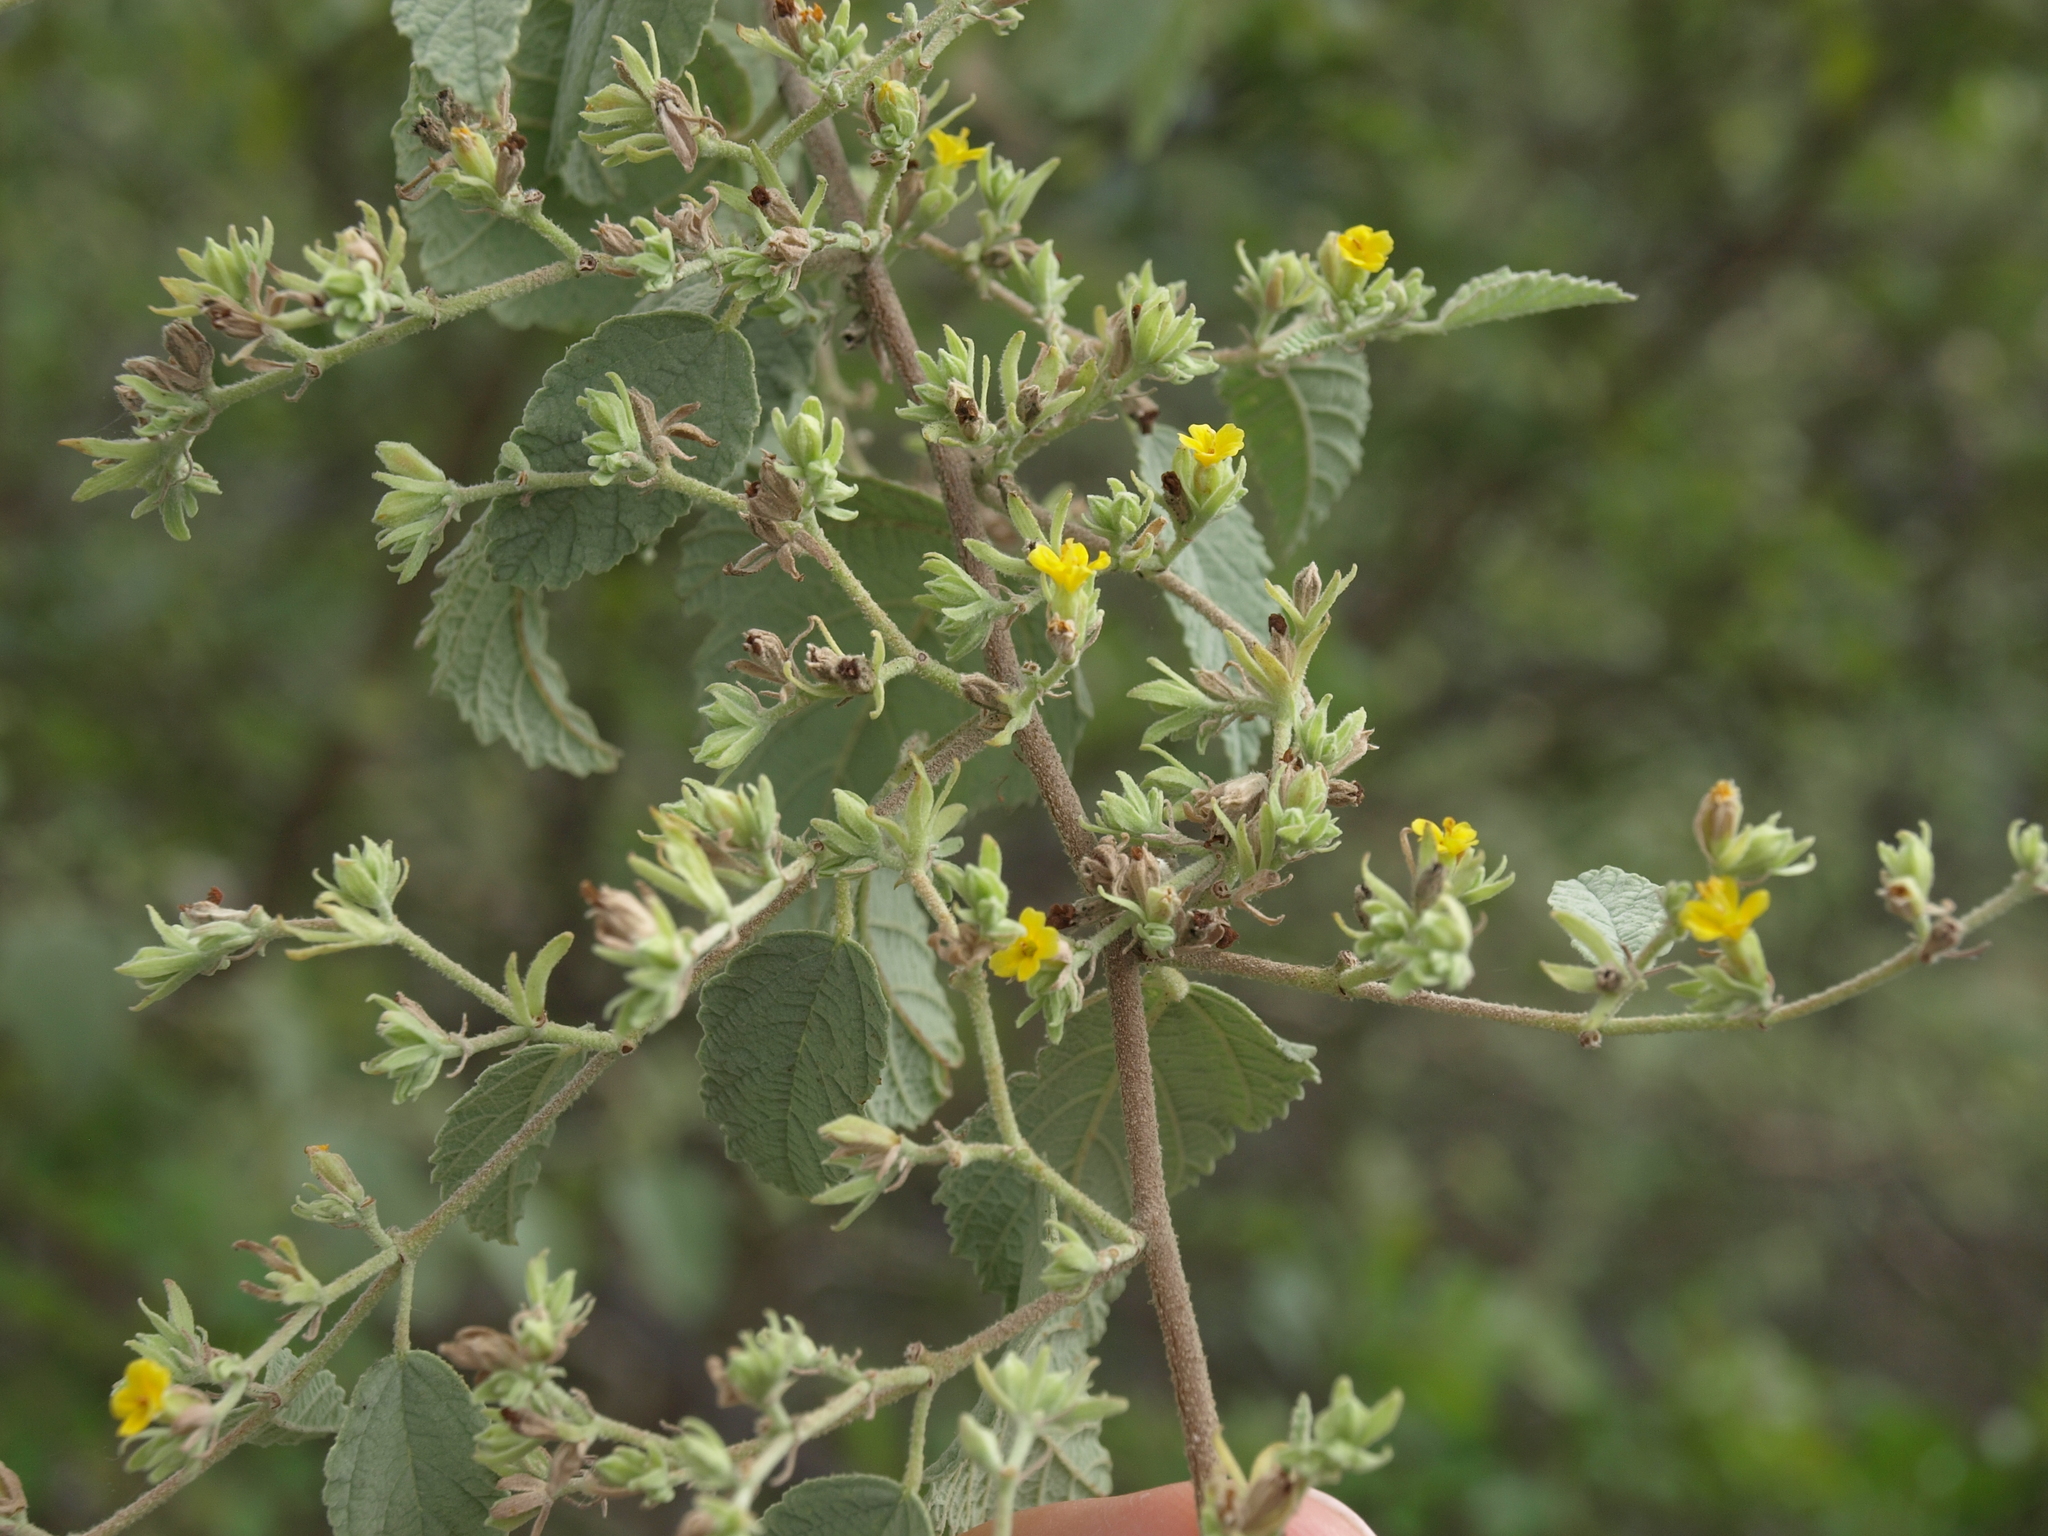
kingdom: Plantae
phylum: Tracheophyta
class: Magnoliopsida
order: Malvales
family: Malvaceae
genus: Waltheria
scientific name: Waltheria ovata
